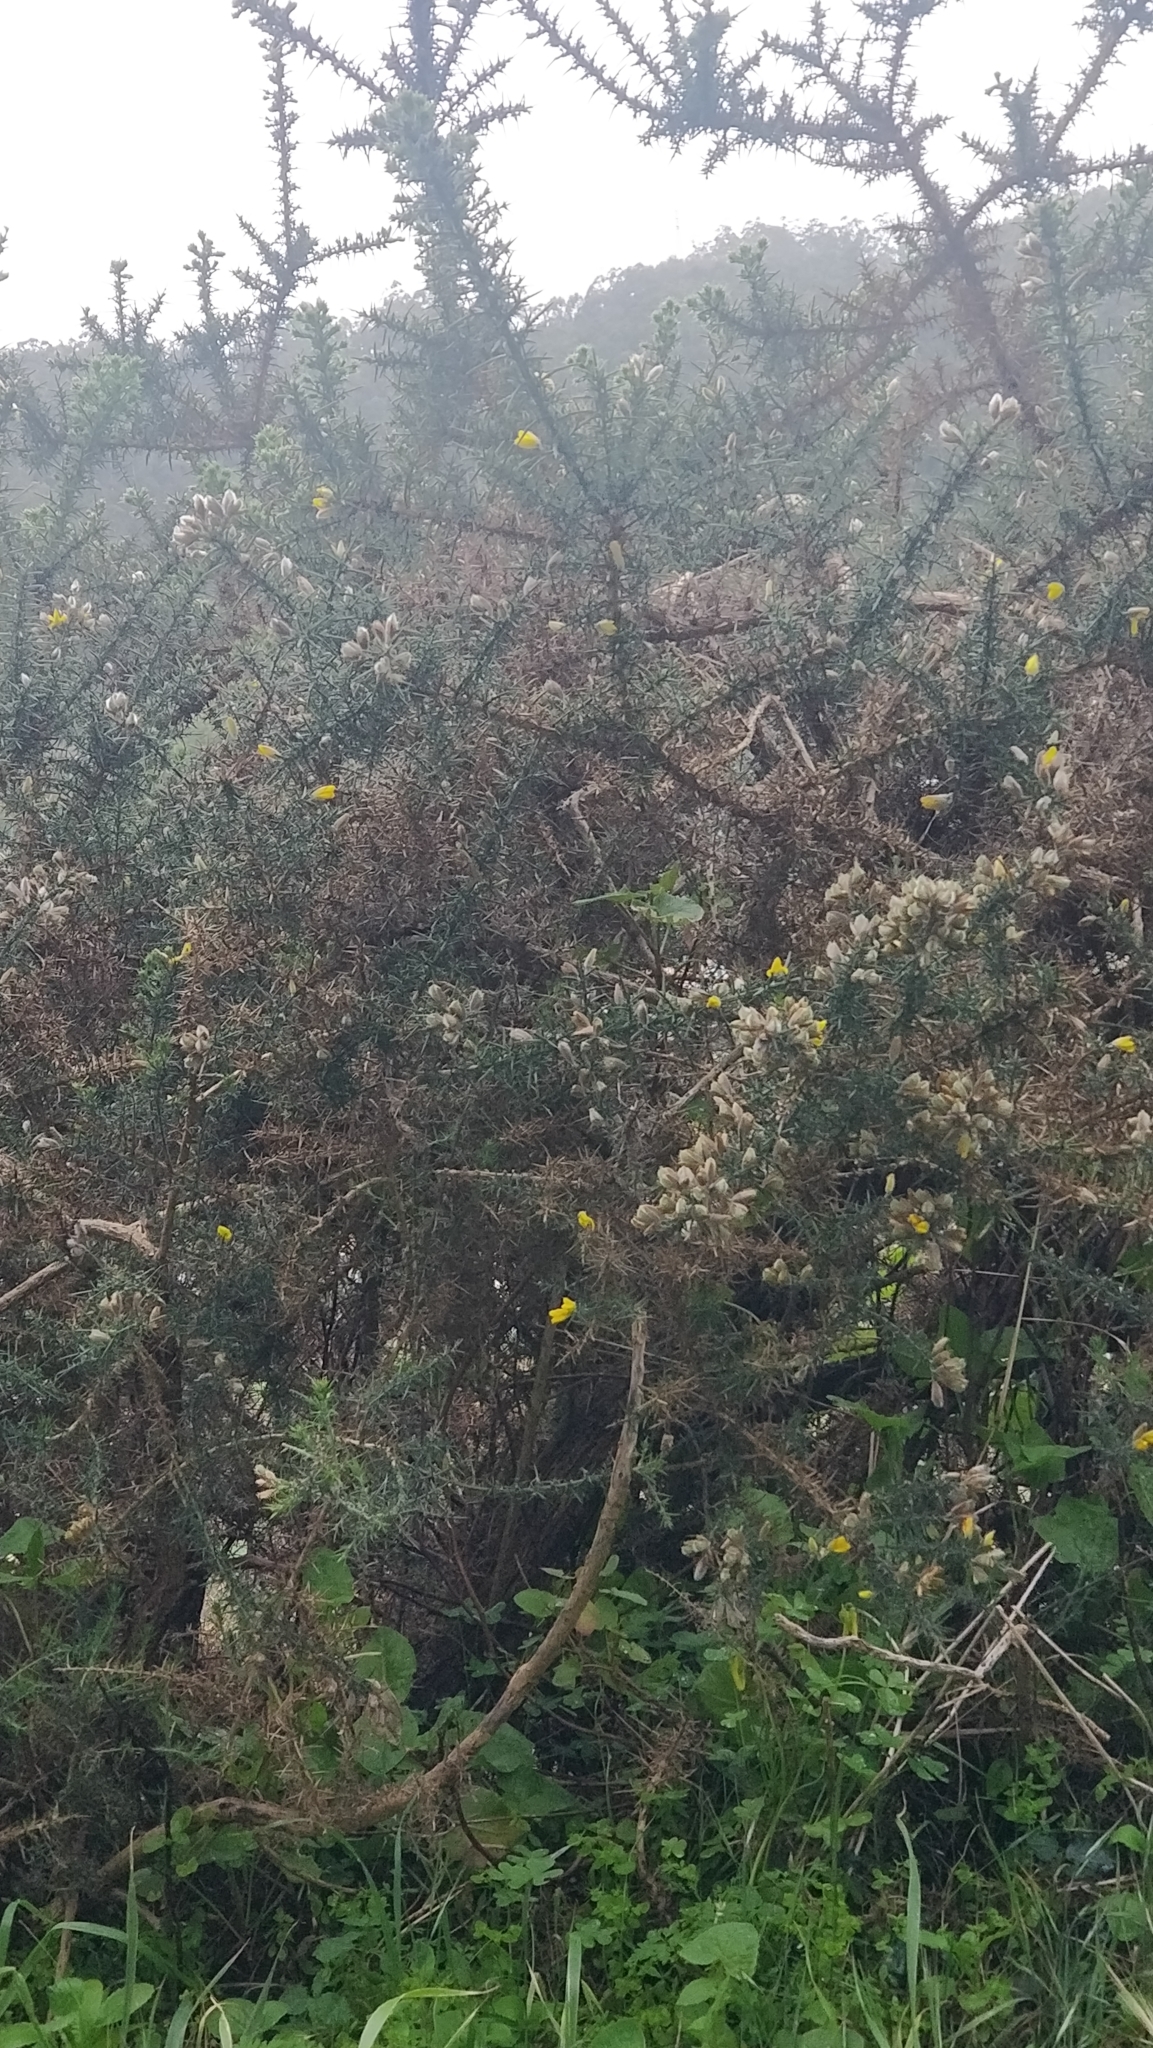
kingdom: Plantae
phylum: Tracheophyta
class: Magnoliopsida
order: Fabales
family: Fabaceae
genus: Ulex
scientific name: Ulex europaeus
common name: Common gorse
